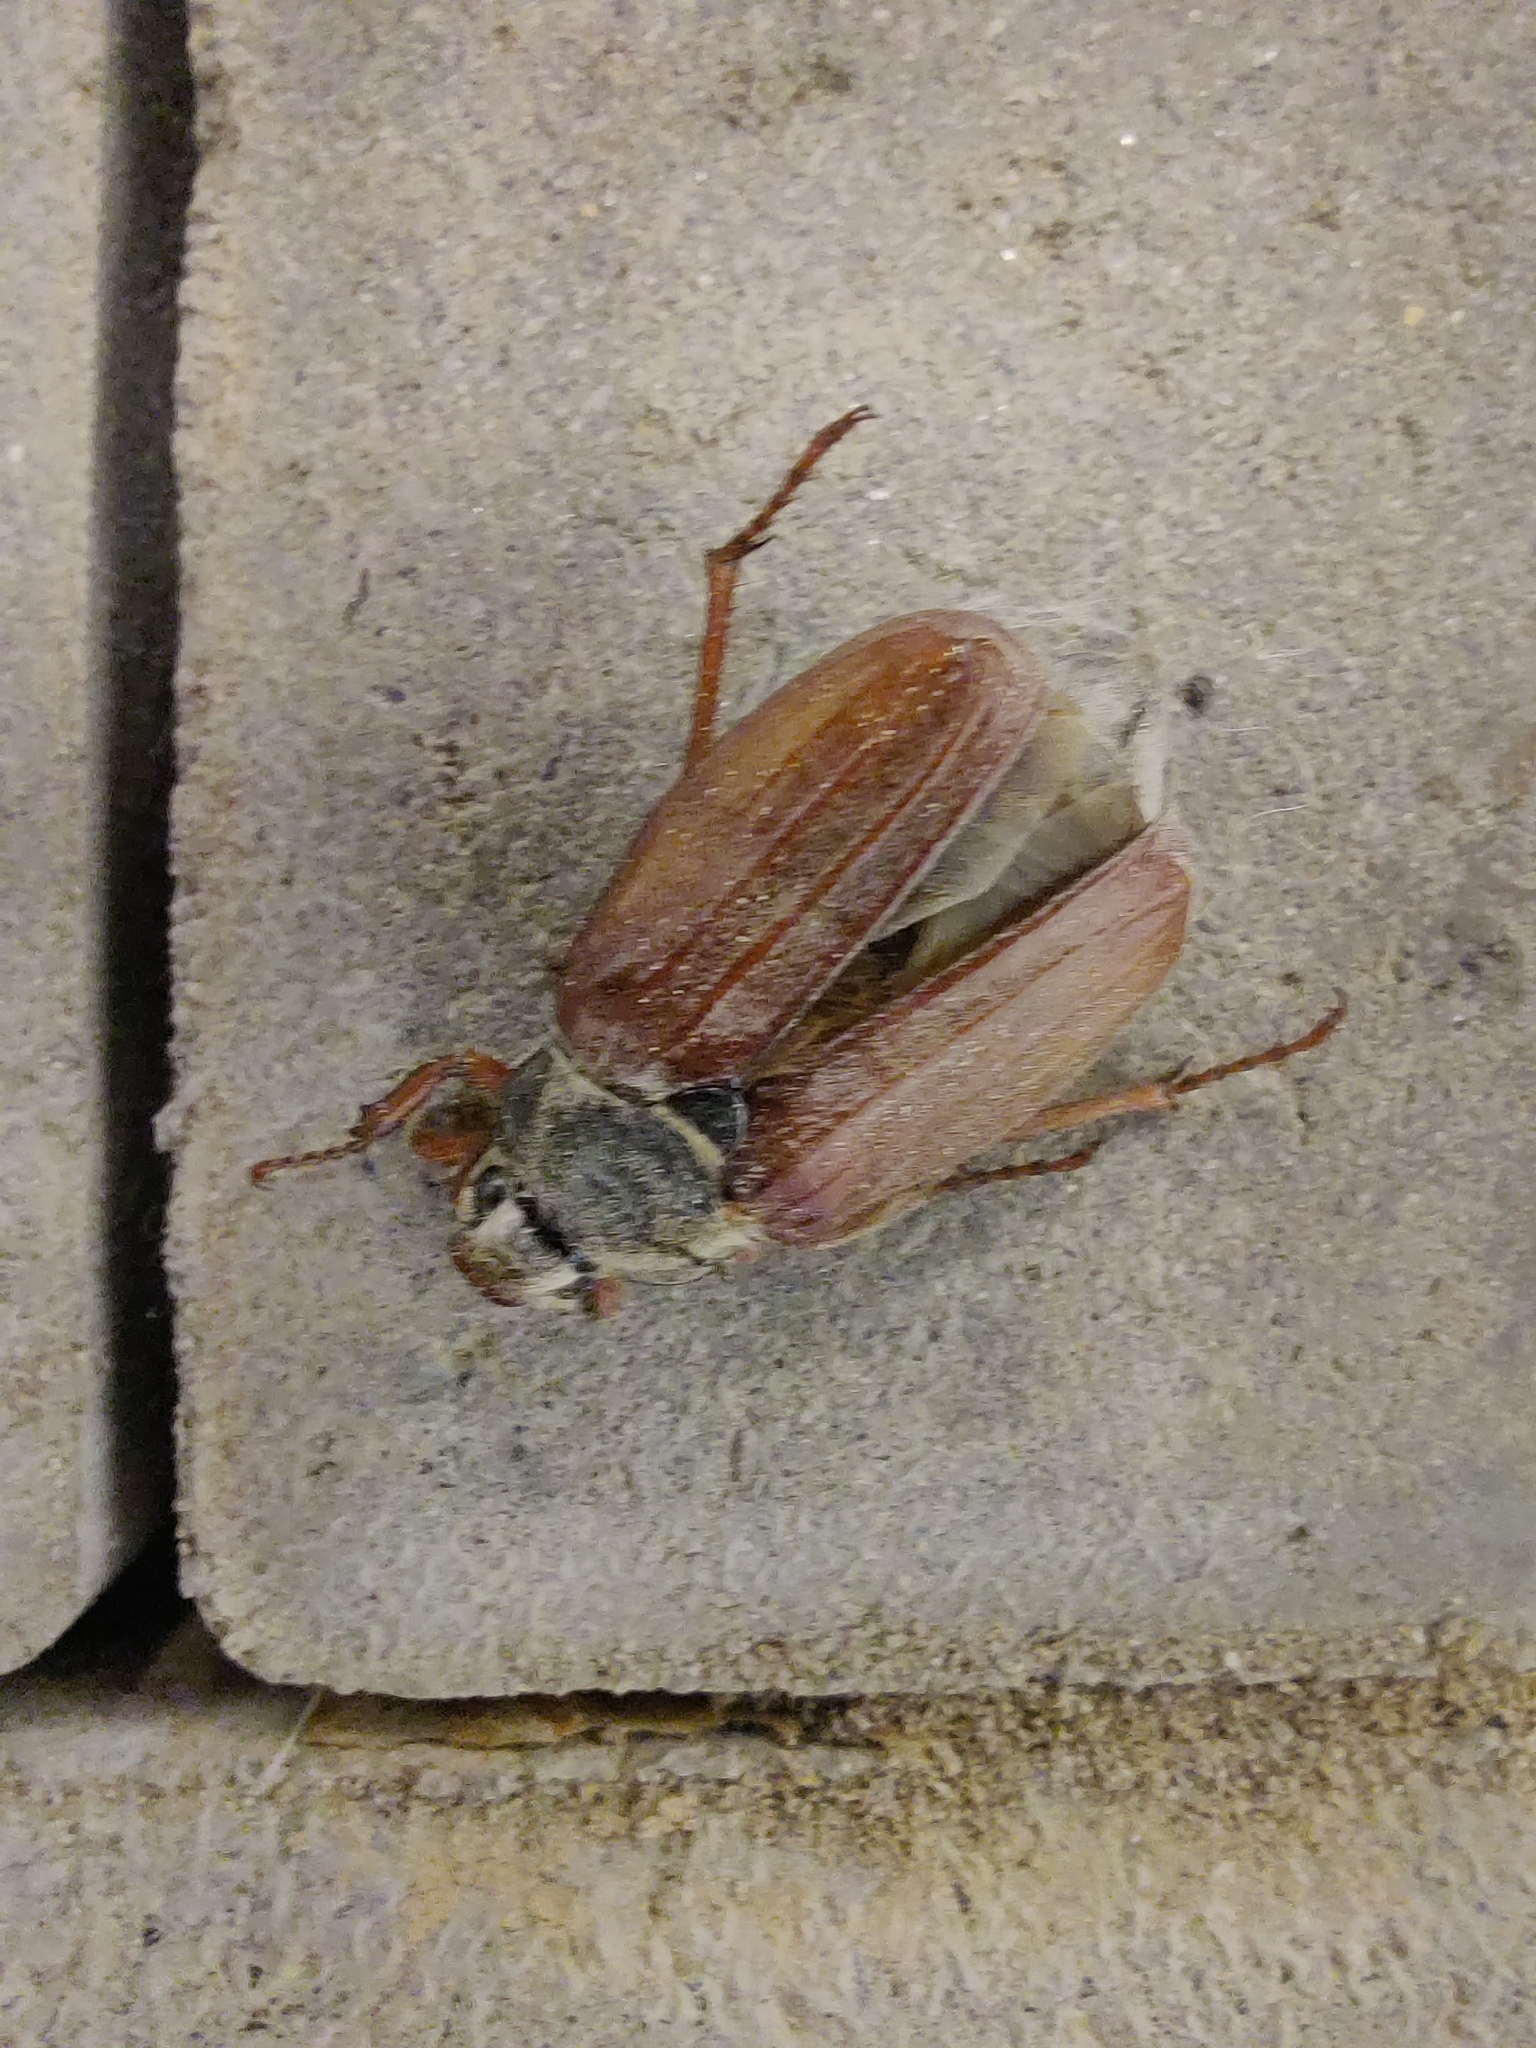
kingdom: Animalia
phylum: Arthropoda
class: Insecta
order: Coleoptera
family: Scarabaeidae
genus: Melolontha
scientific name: Melolontha melolontha
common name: Cockchafer maybeetle
